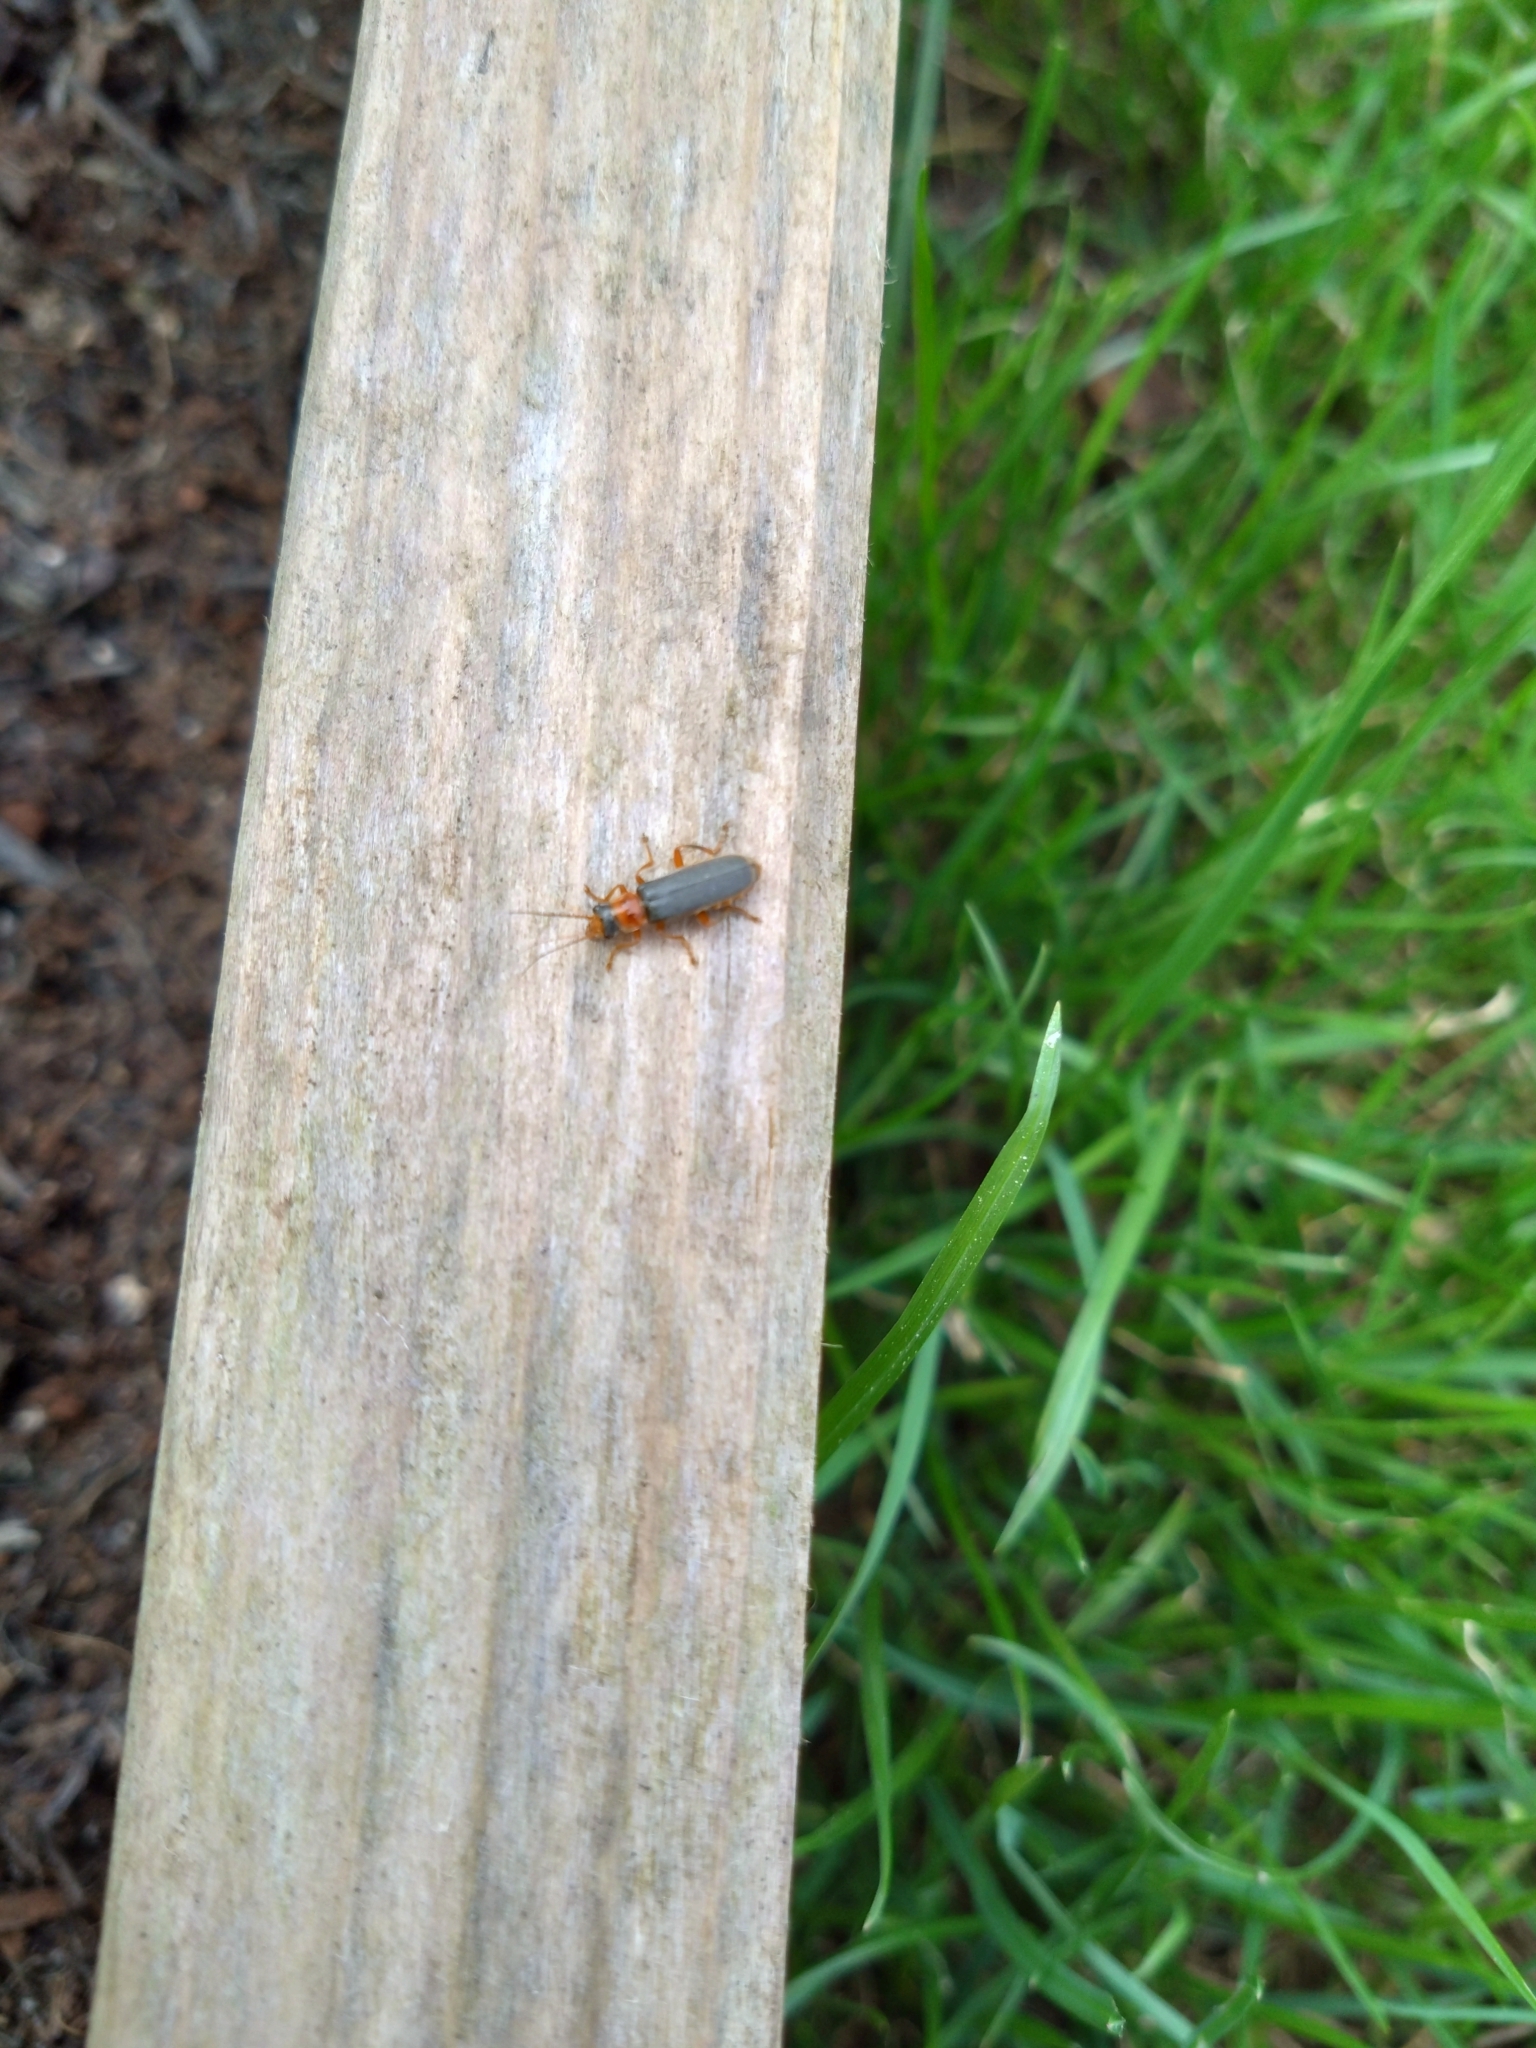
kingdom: Animalia
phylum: Arthropoda
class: Insecta
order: Coleoptera
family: Cantharidae
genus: Cantharis
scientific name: Cantharis lateralis
